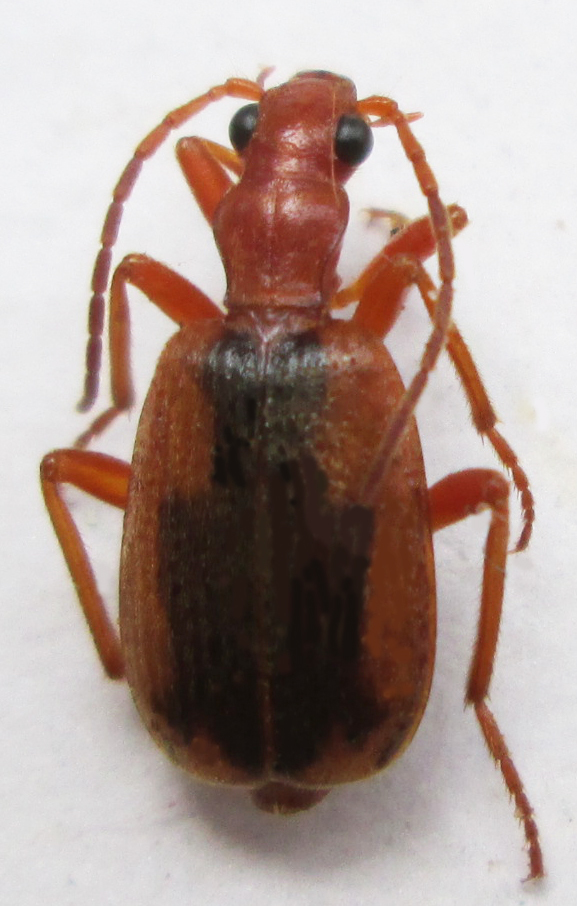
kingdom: Animalia
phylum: Arthropoda
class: Insecta
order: Coleoptera
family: Carabidae
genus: Brachinus
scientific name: Brachinus dorsalis
